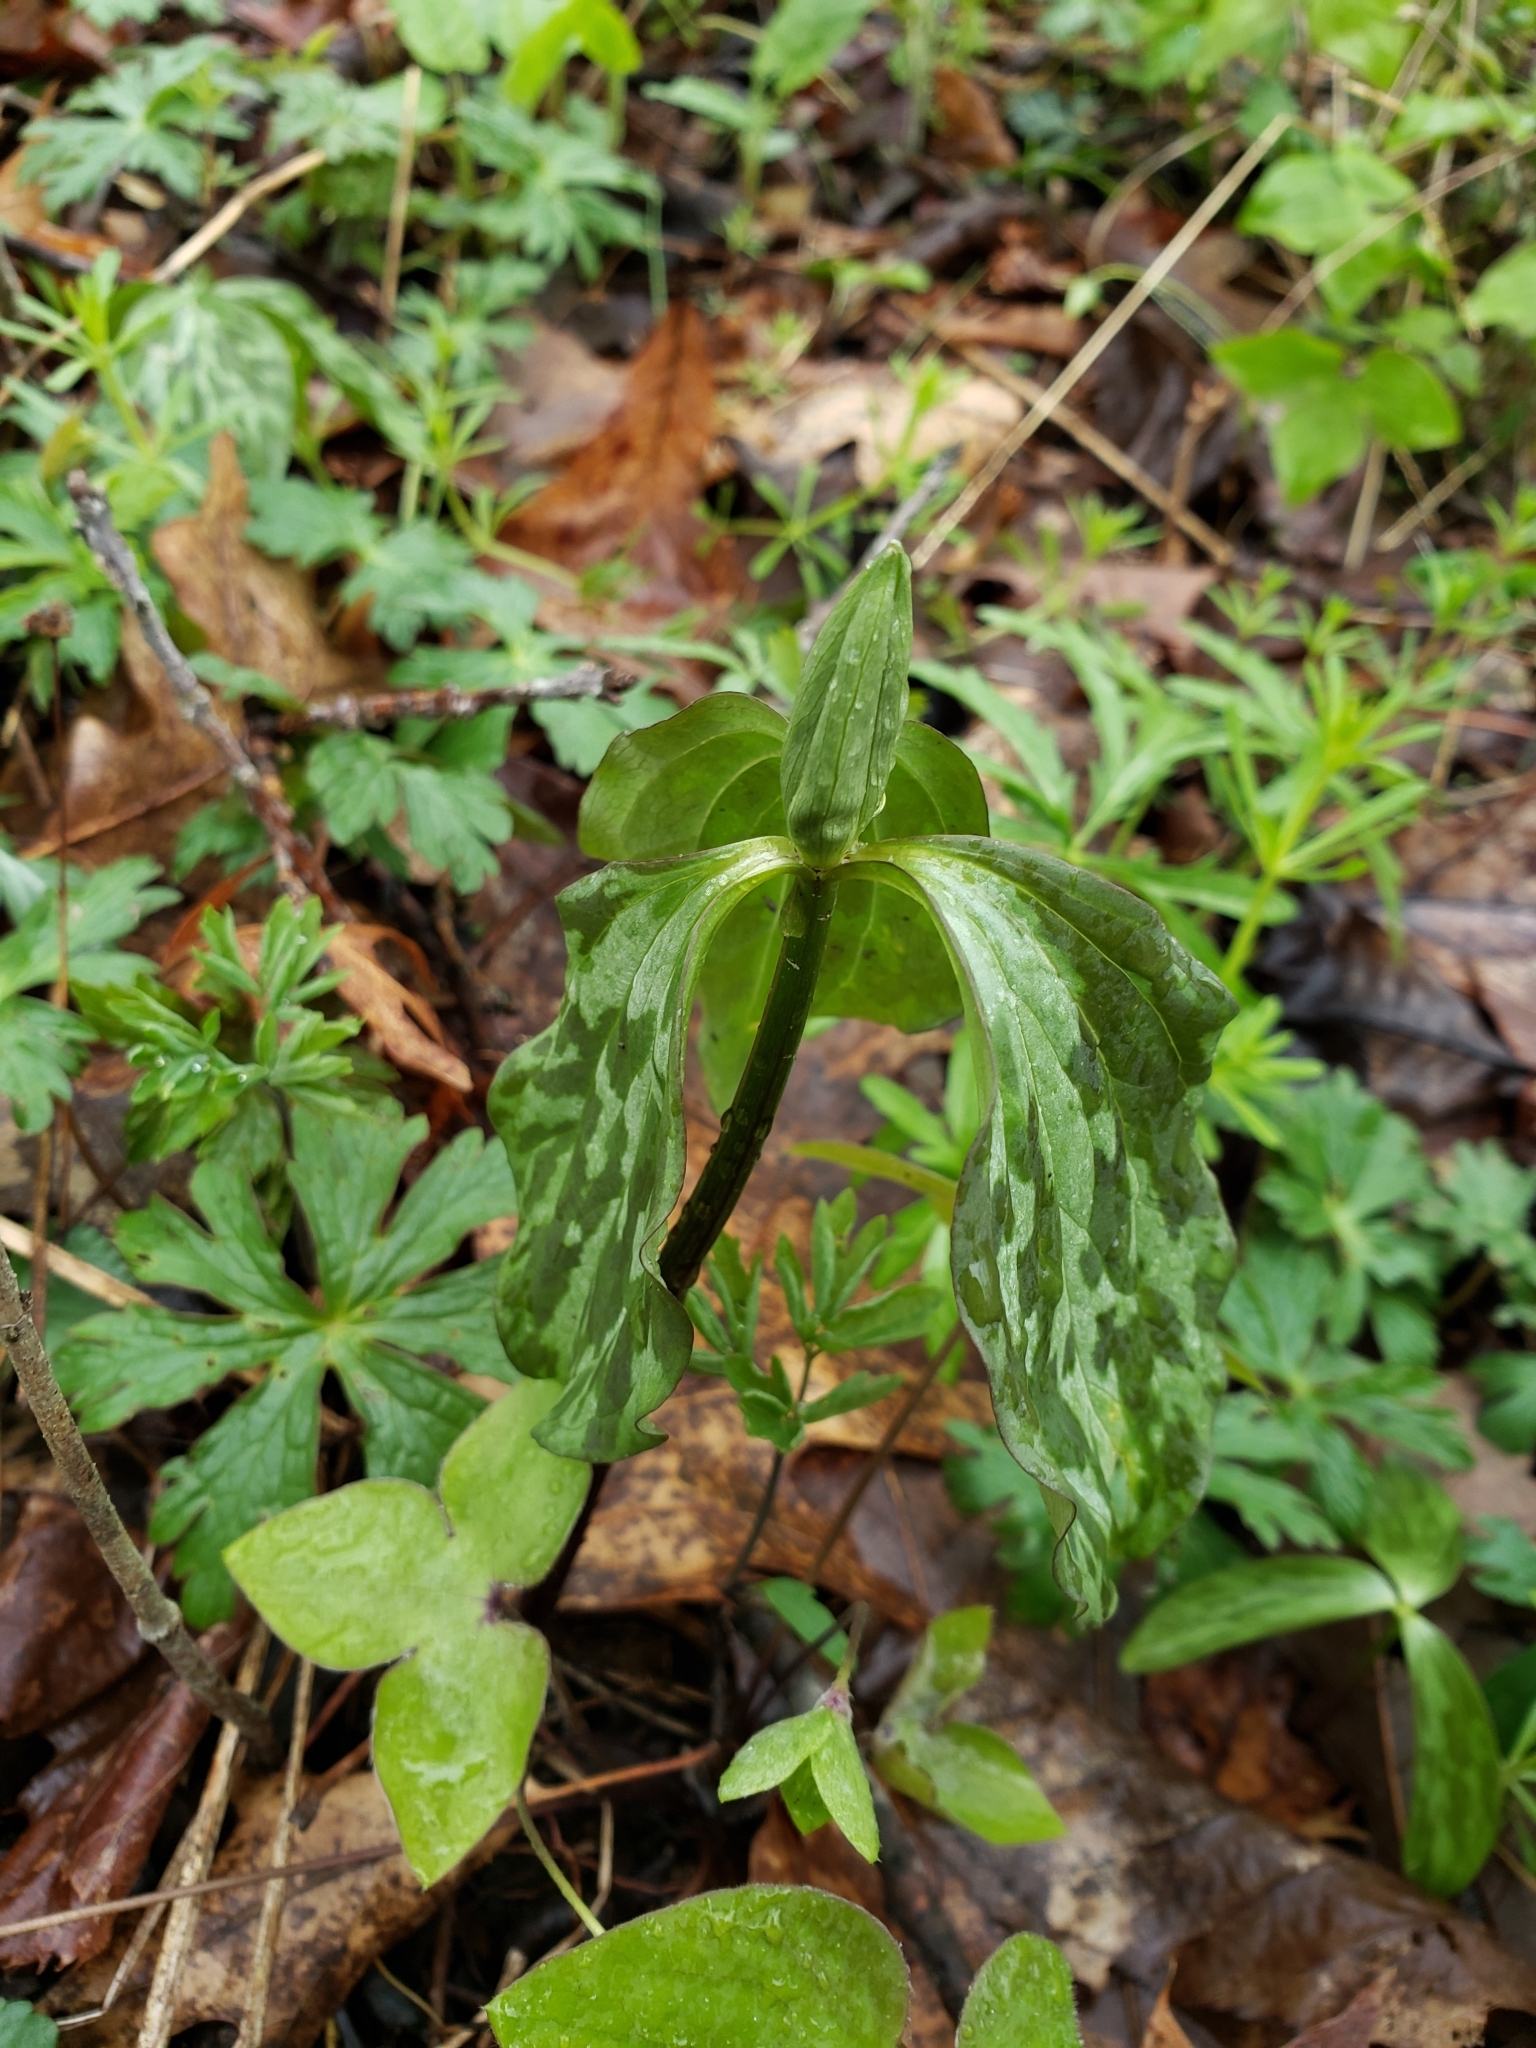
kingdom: Plantae
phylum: Tracheophyta
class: Liliopsida
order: Liliales
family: Melanthiaceae
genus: Trillium
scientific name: Trillium recurvatum
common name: Bloody butcher
